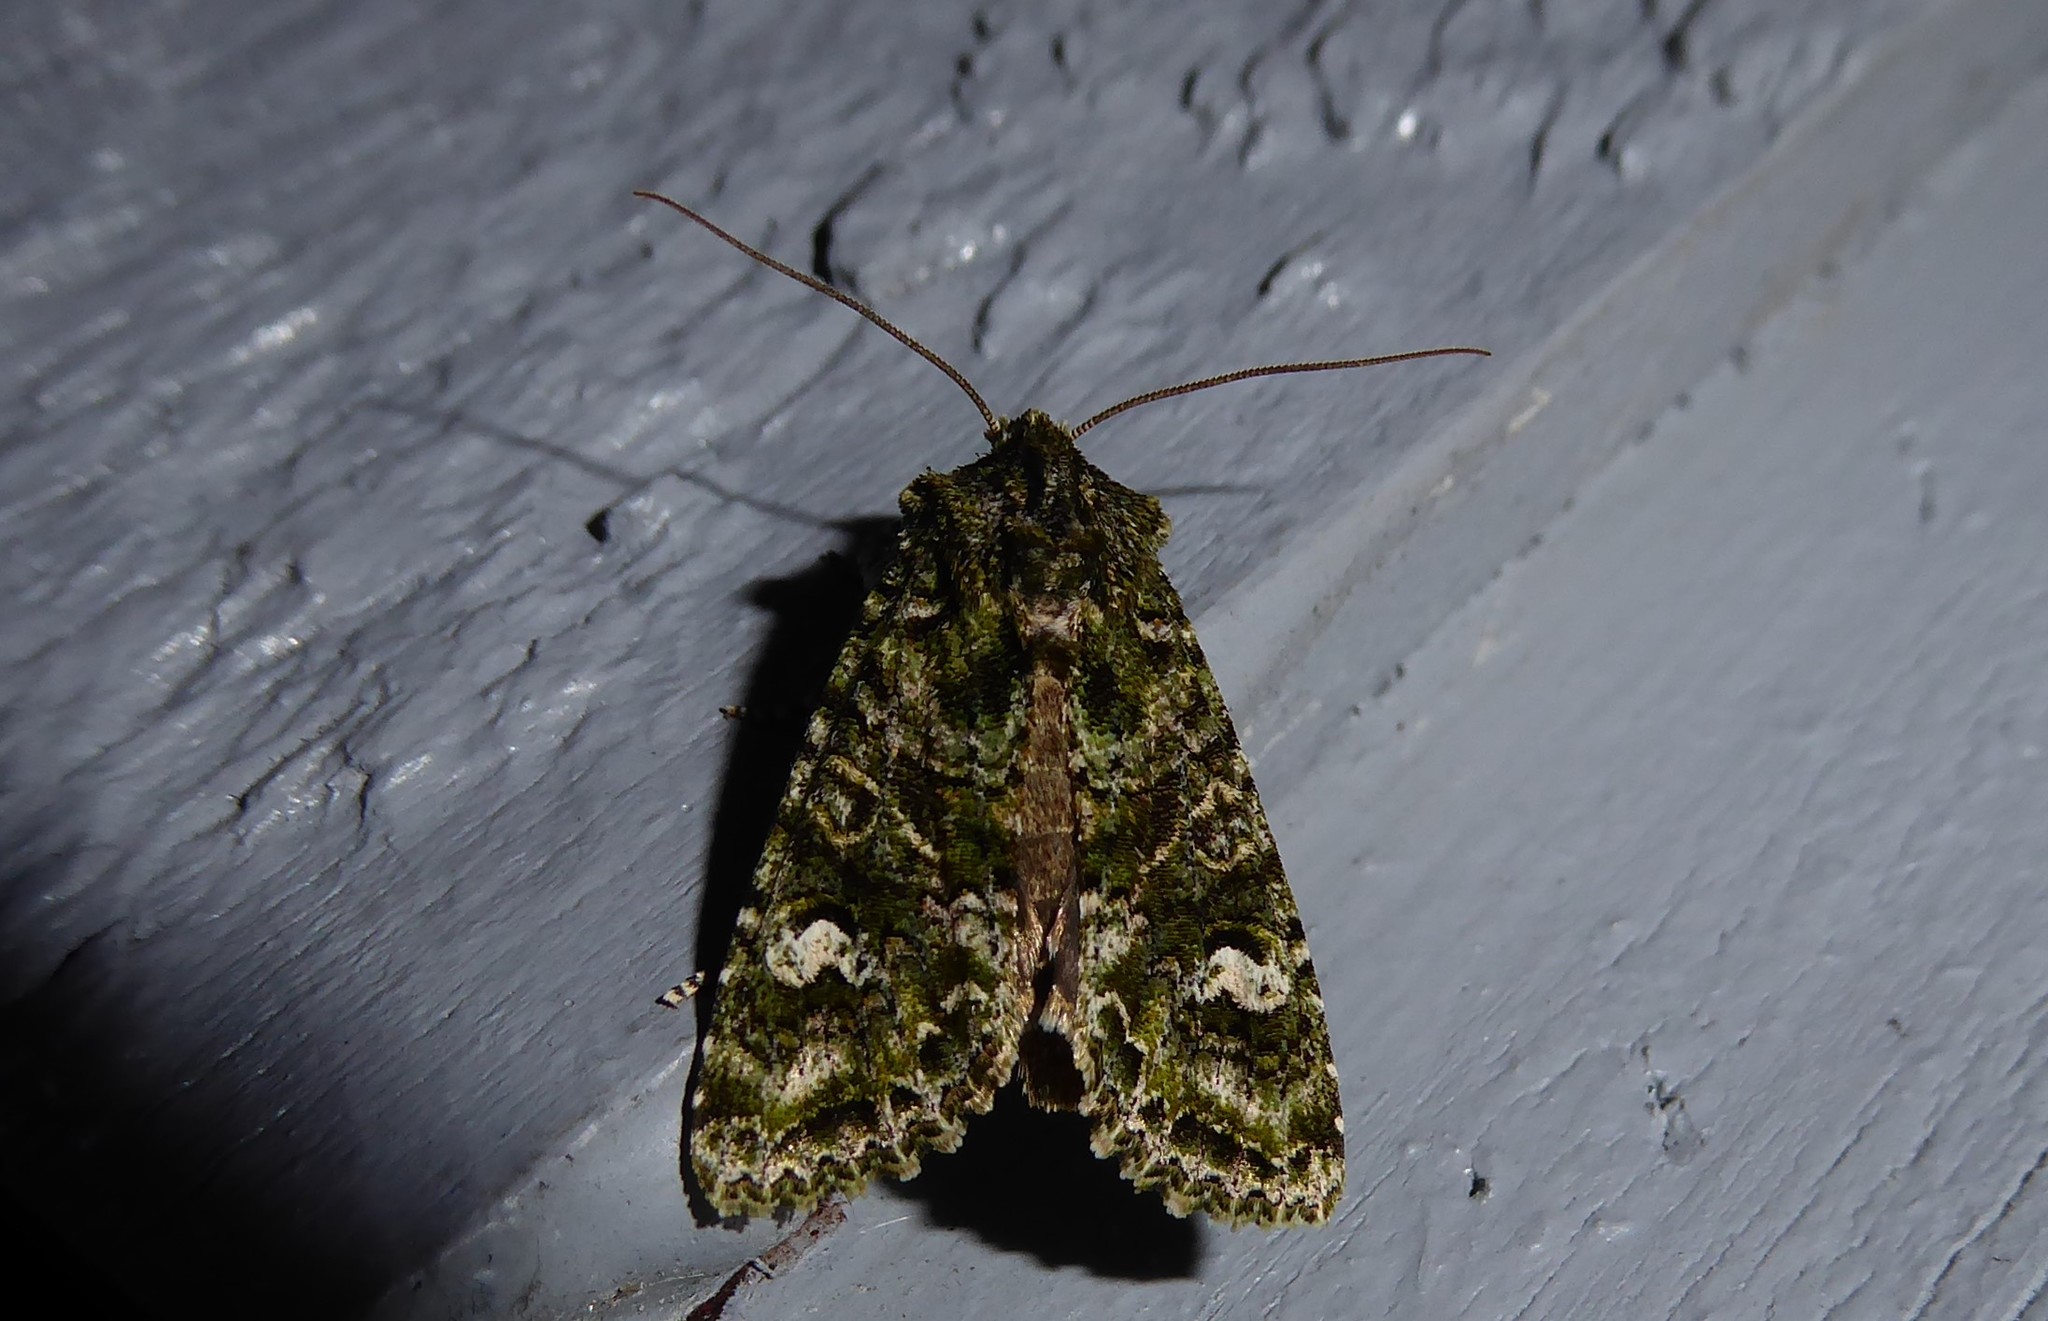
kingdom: Animalia
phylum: Arthropoda
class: Insecta
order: Lepidoptera
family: Noctuidae
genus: Ichneutica
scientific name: Ichneutica
